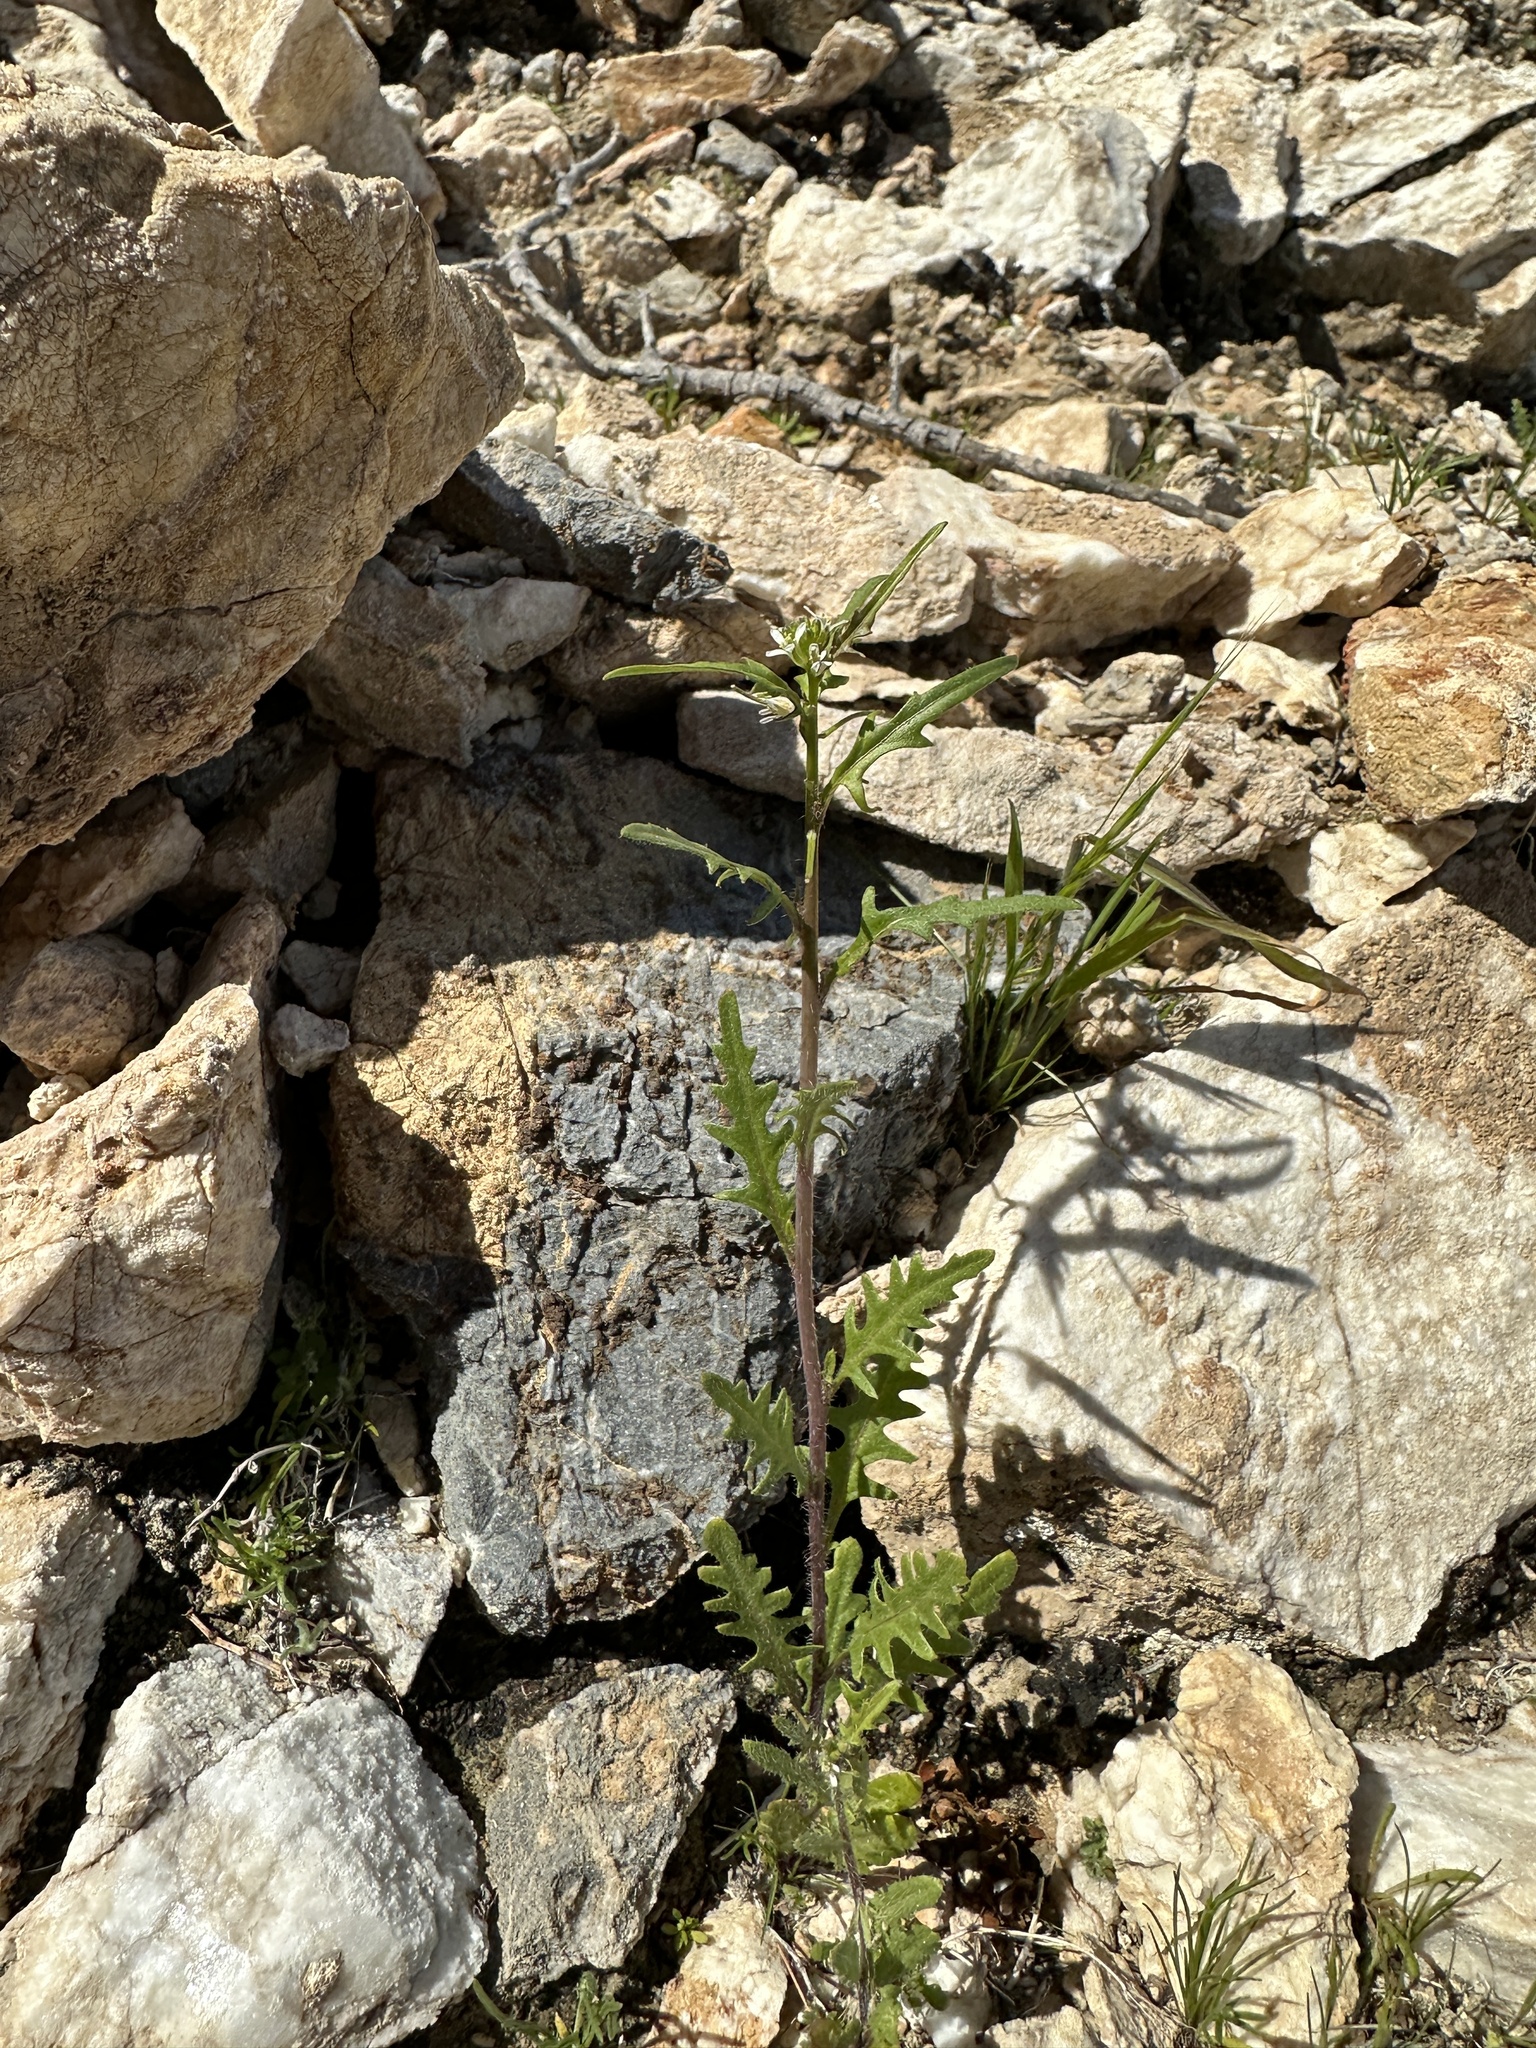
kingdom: Plantae
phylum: Tracheophyta
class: Magnoliopsida
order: Brassicales
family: Brassicaceae
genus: Streptanthus
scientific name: Streptanthus lasiophyllus
